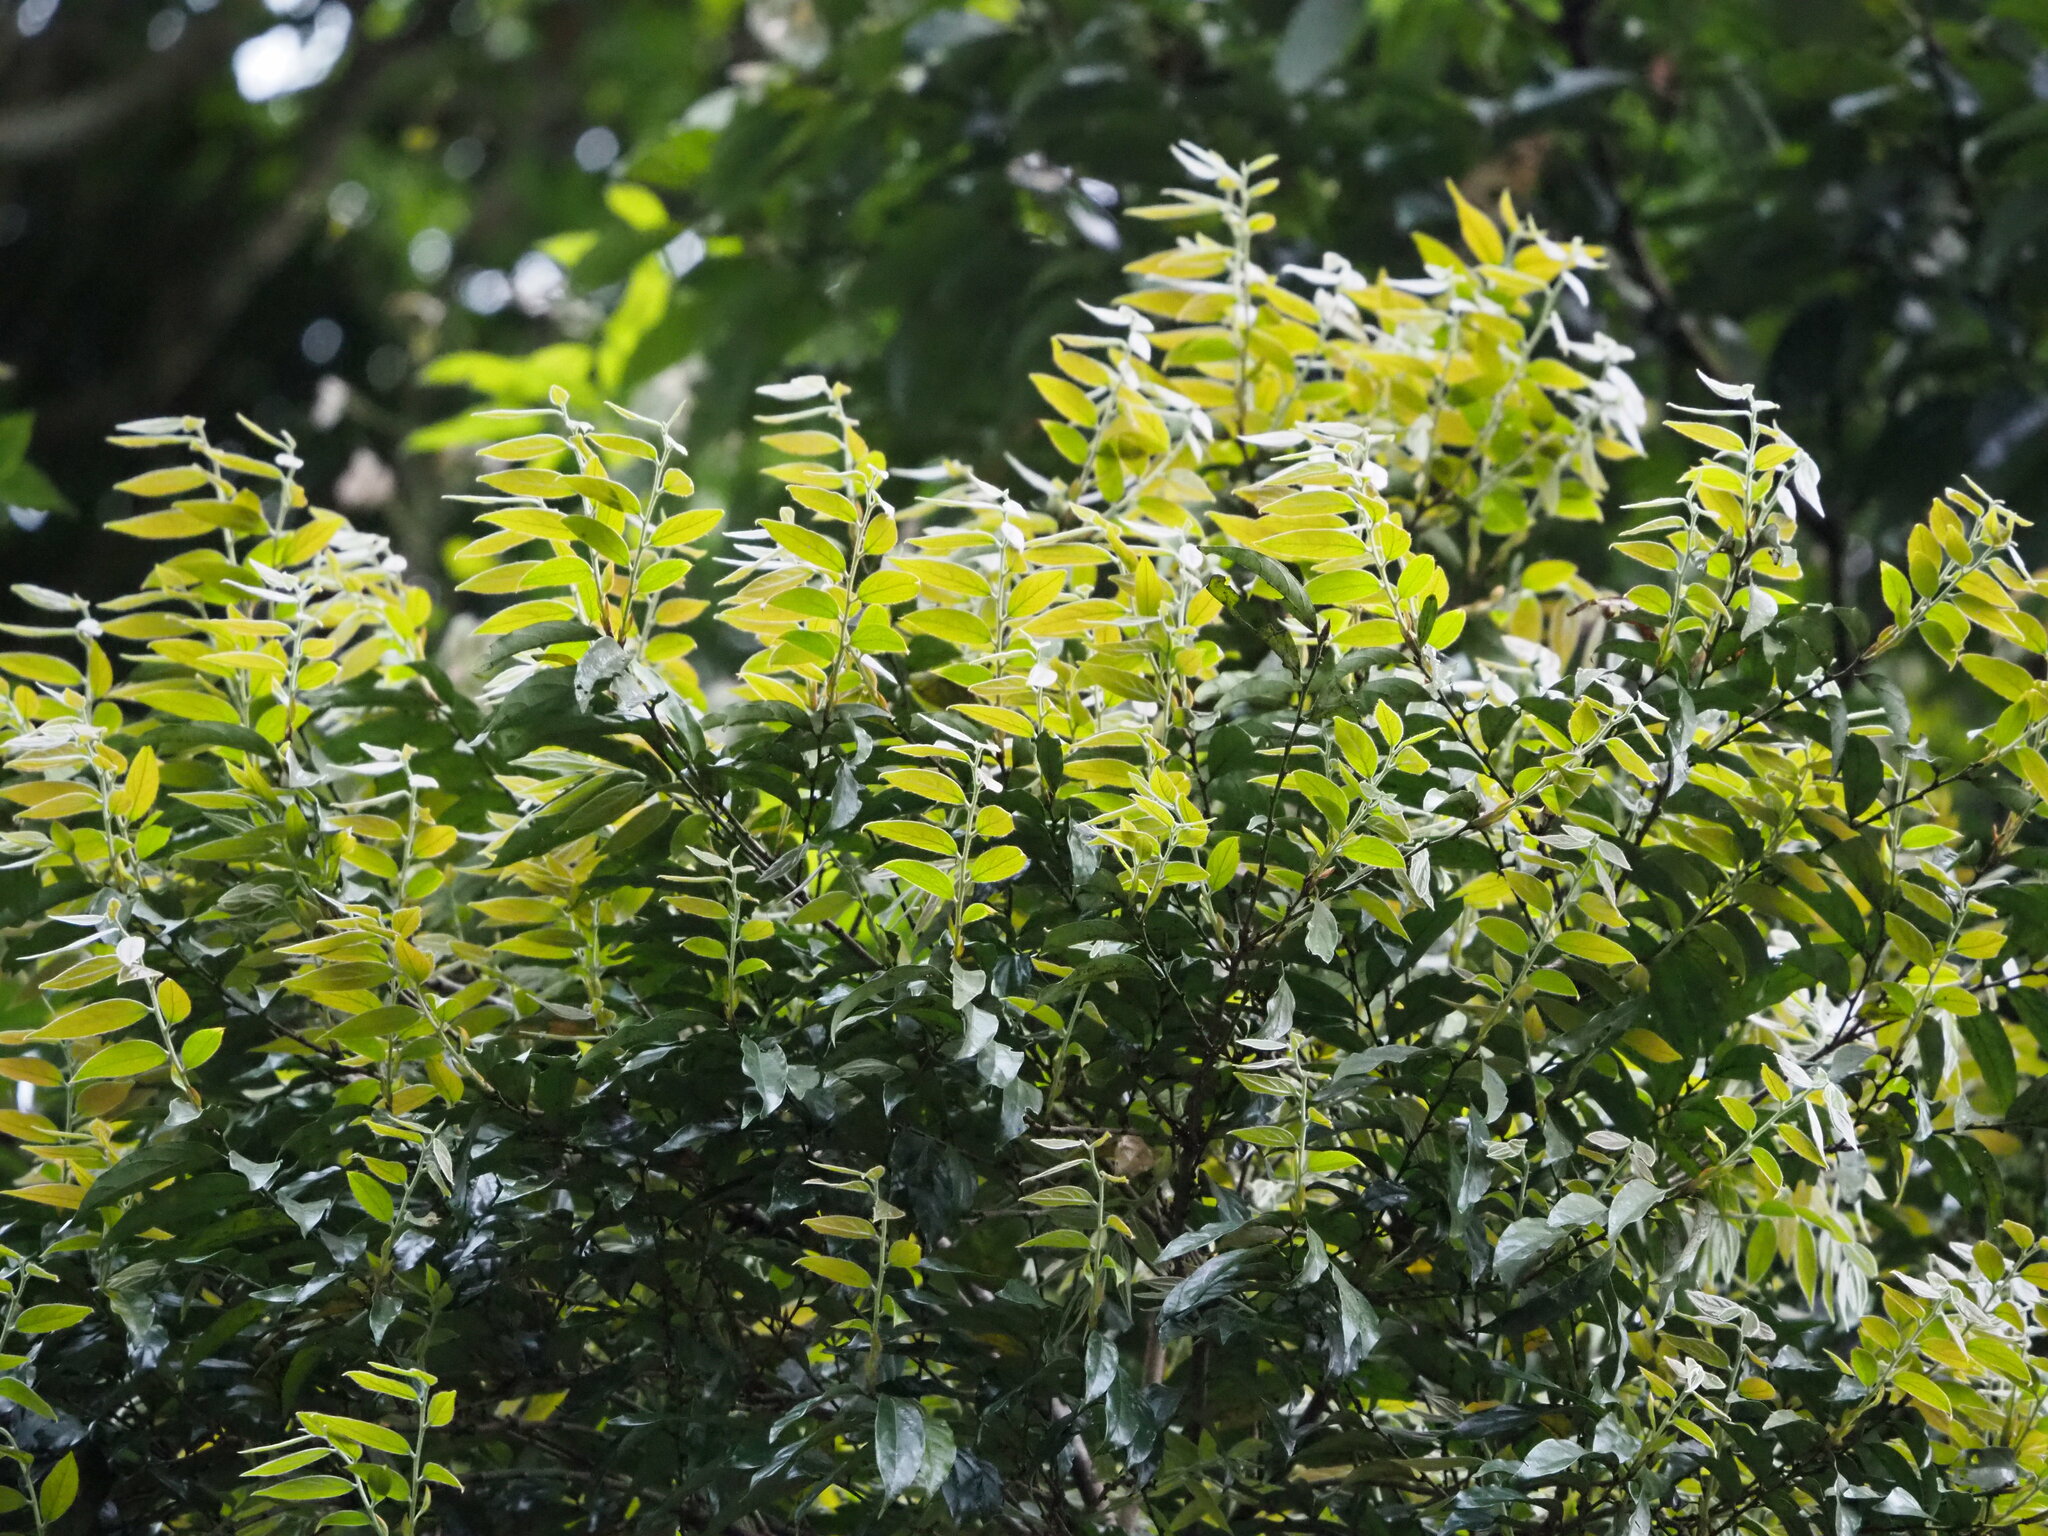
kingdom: Plantae
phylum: Tracheophyta
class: Magnoliopsida
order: Ericales
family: Ebenaceae
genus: Diospyros
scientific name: Diospyros eriantha
